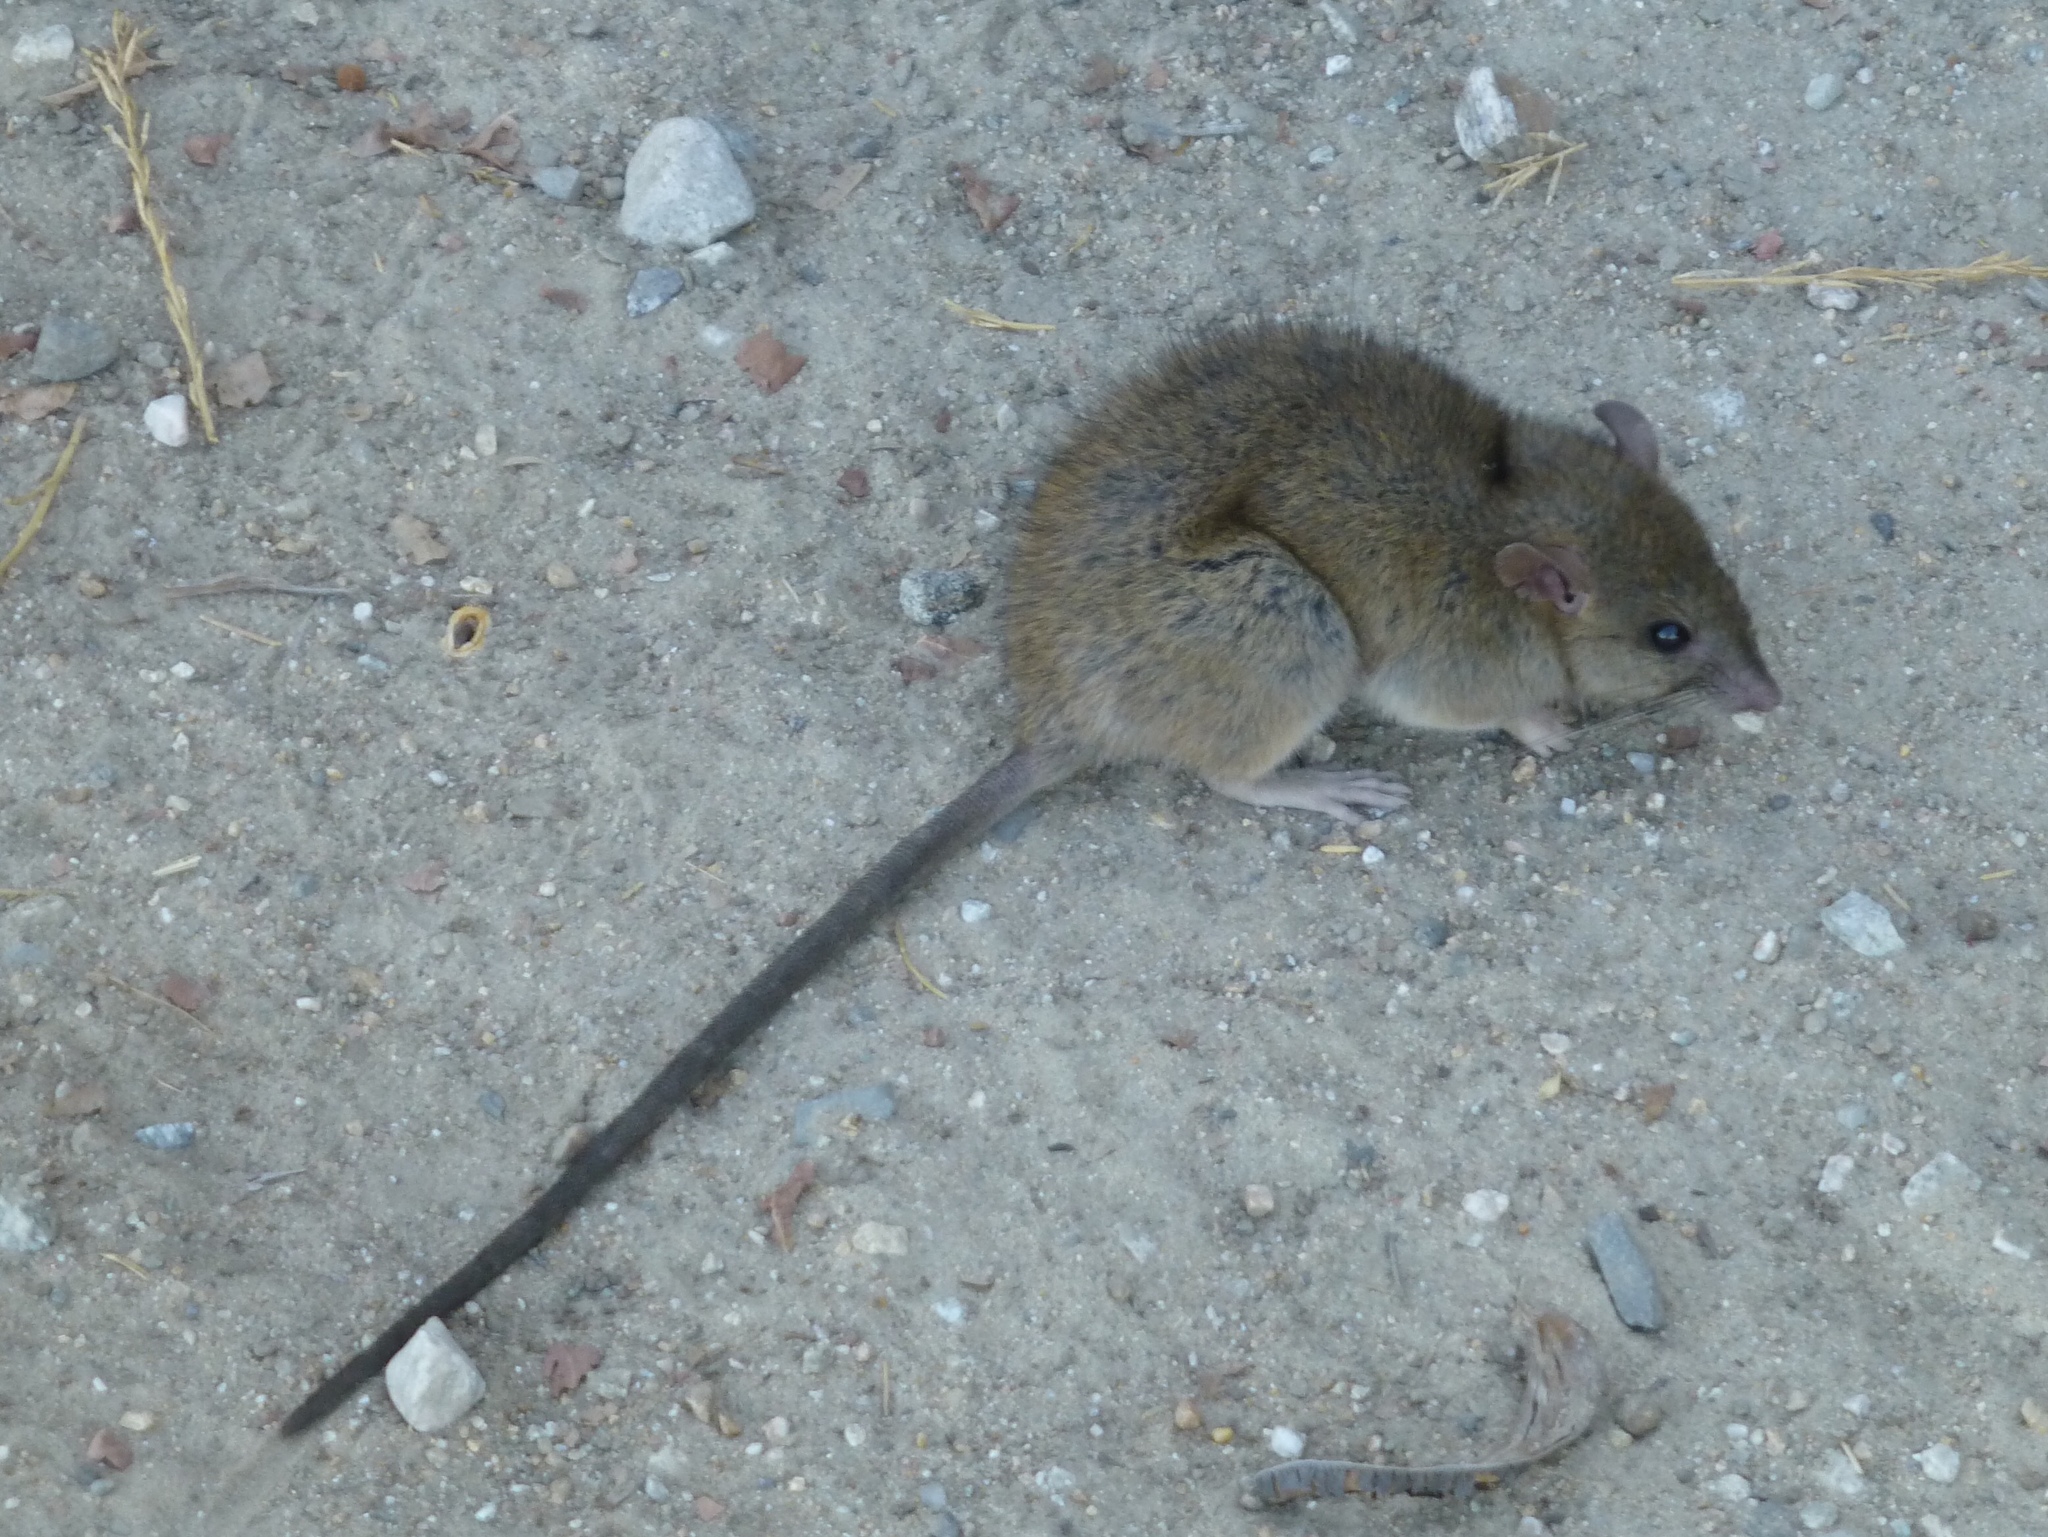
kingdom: Animalia
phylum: Chordata
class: Mammalia
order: Rodentia
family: Muridae
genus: Rattus
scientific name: Rattus rattus
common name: Black rat
